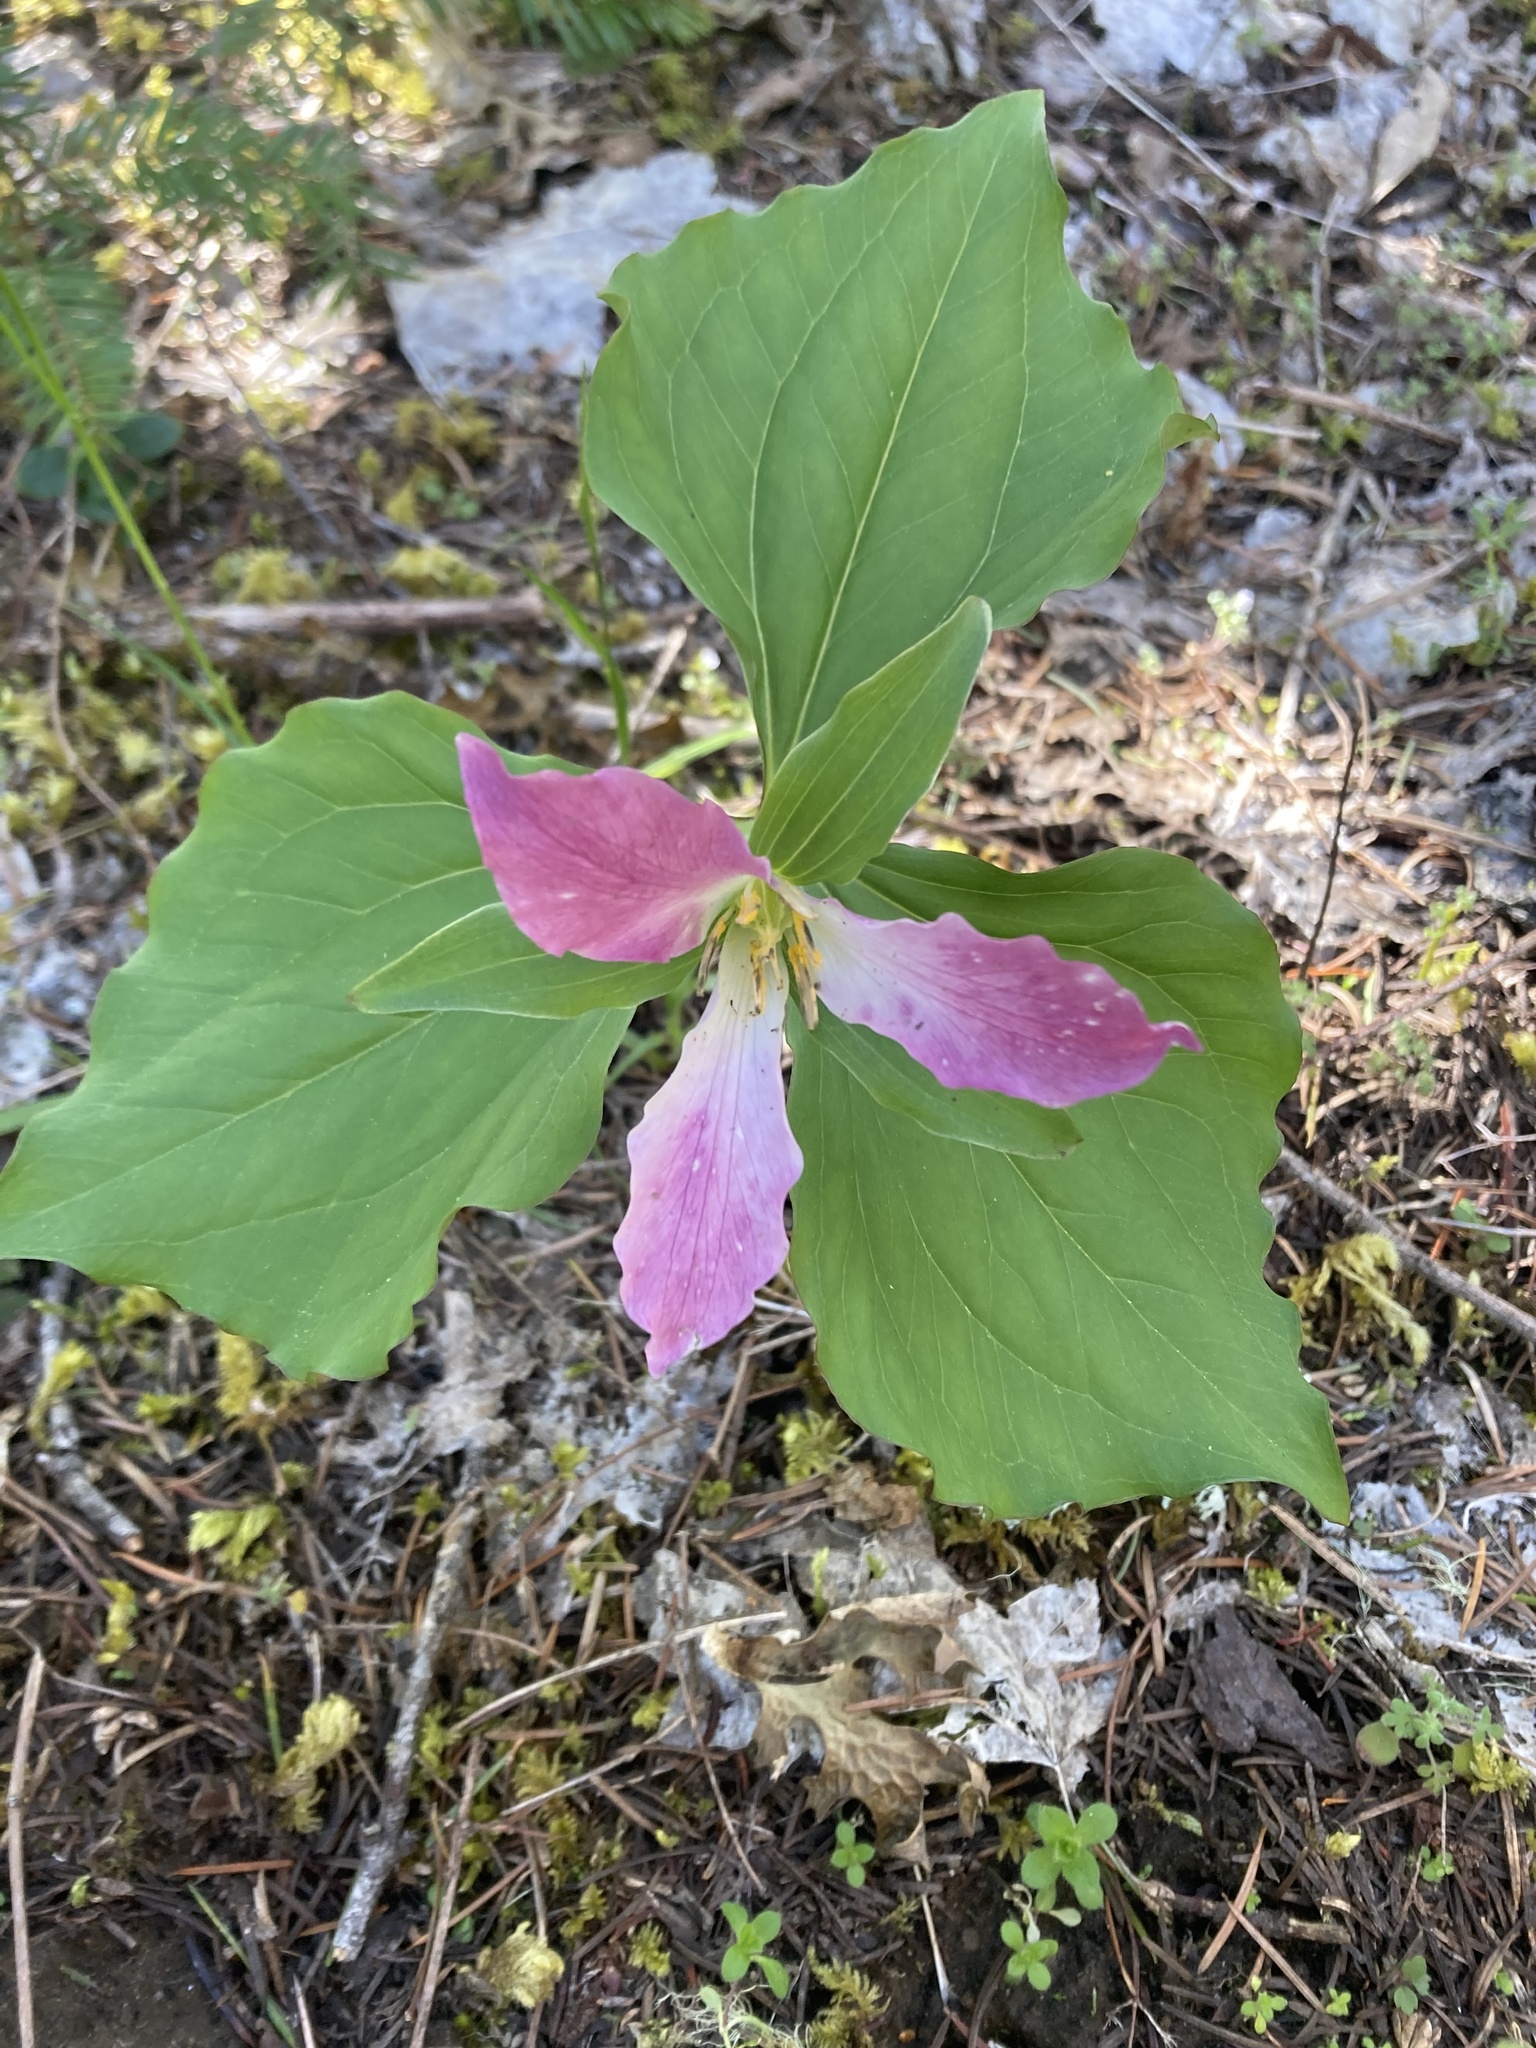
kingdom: Plantae
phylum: Tracheophyta
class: Liliopsida
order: Liliales
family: Melanthiaceae
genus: Trillium
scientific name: Trillium ovatum
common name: Pacific trillium
